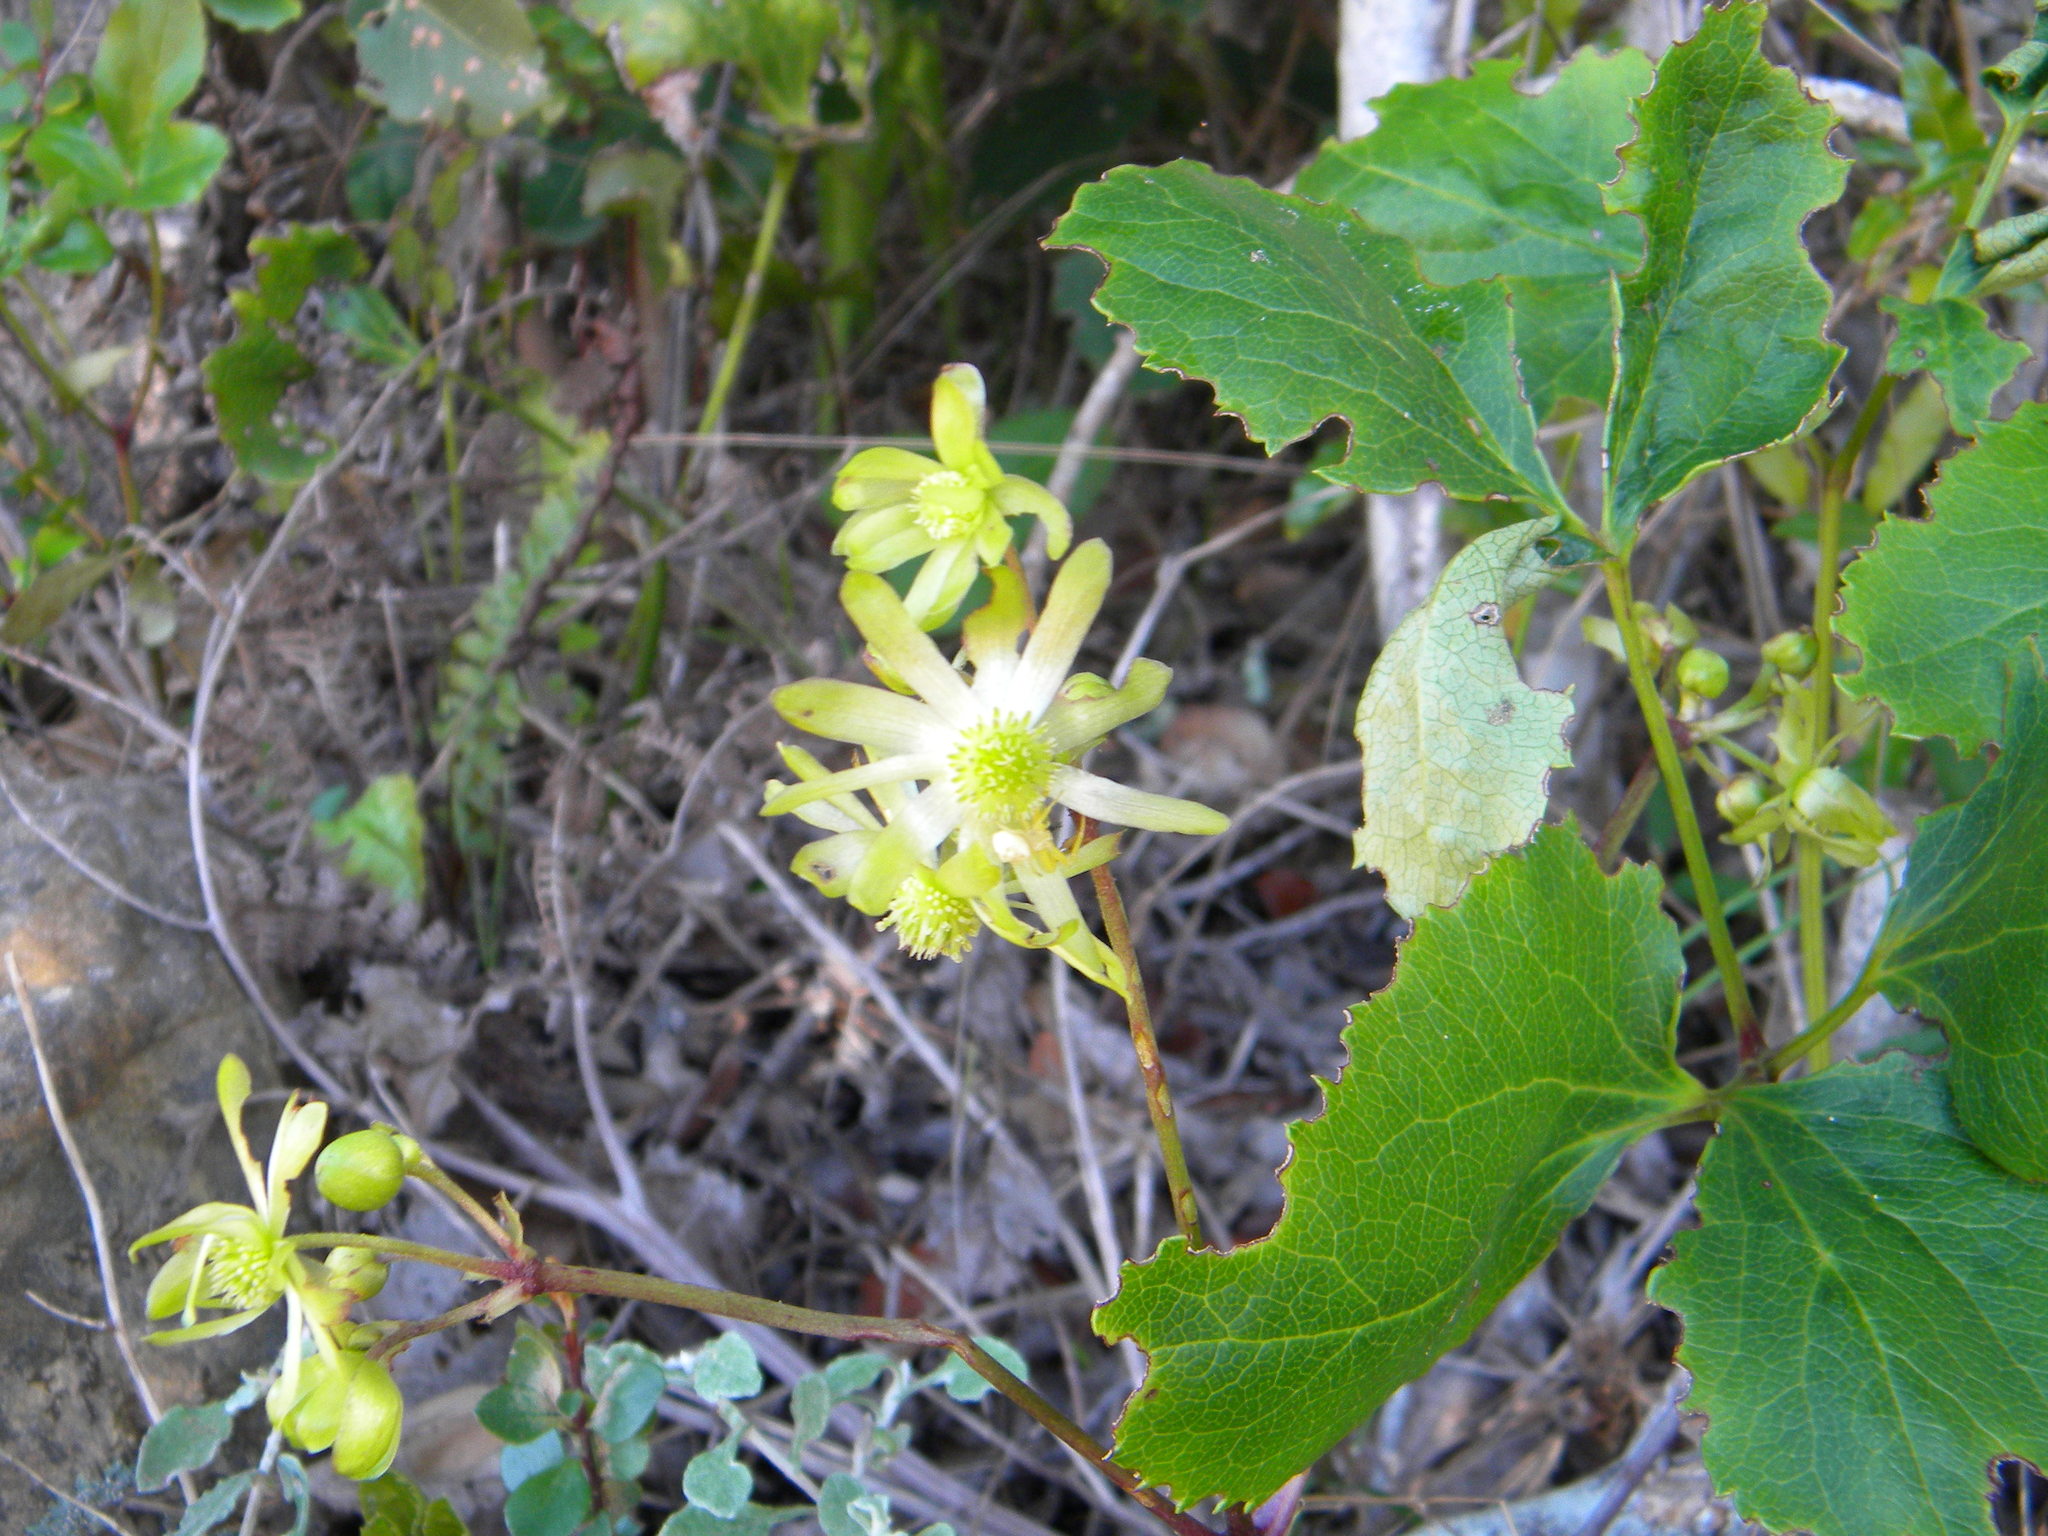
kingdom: Plantae
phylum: Tracheophyta
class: Magnoliopsida
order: Ranunculales
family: Ranunculaceae
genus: Knowltonia
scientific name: Knowltonia vesicatoria
